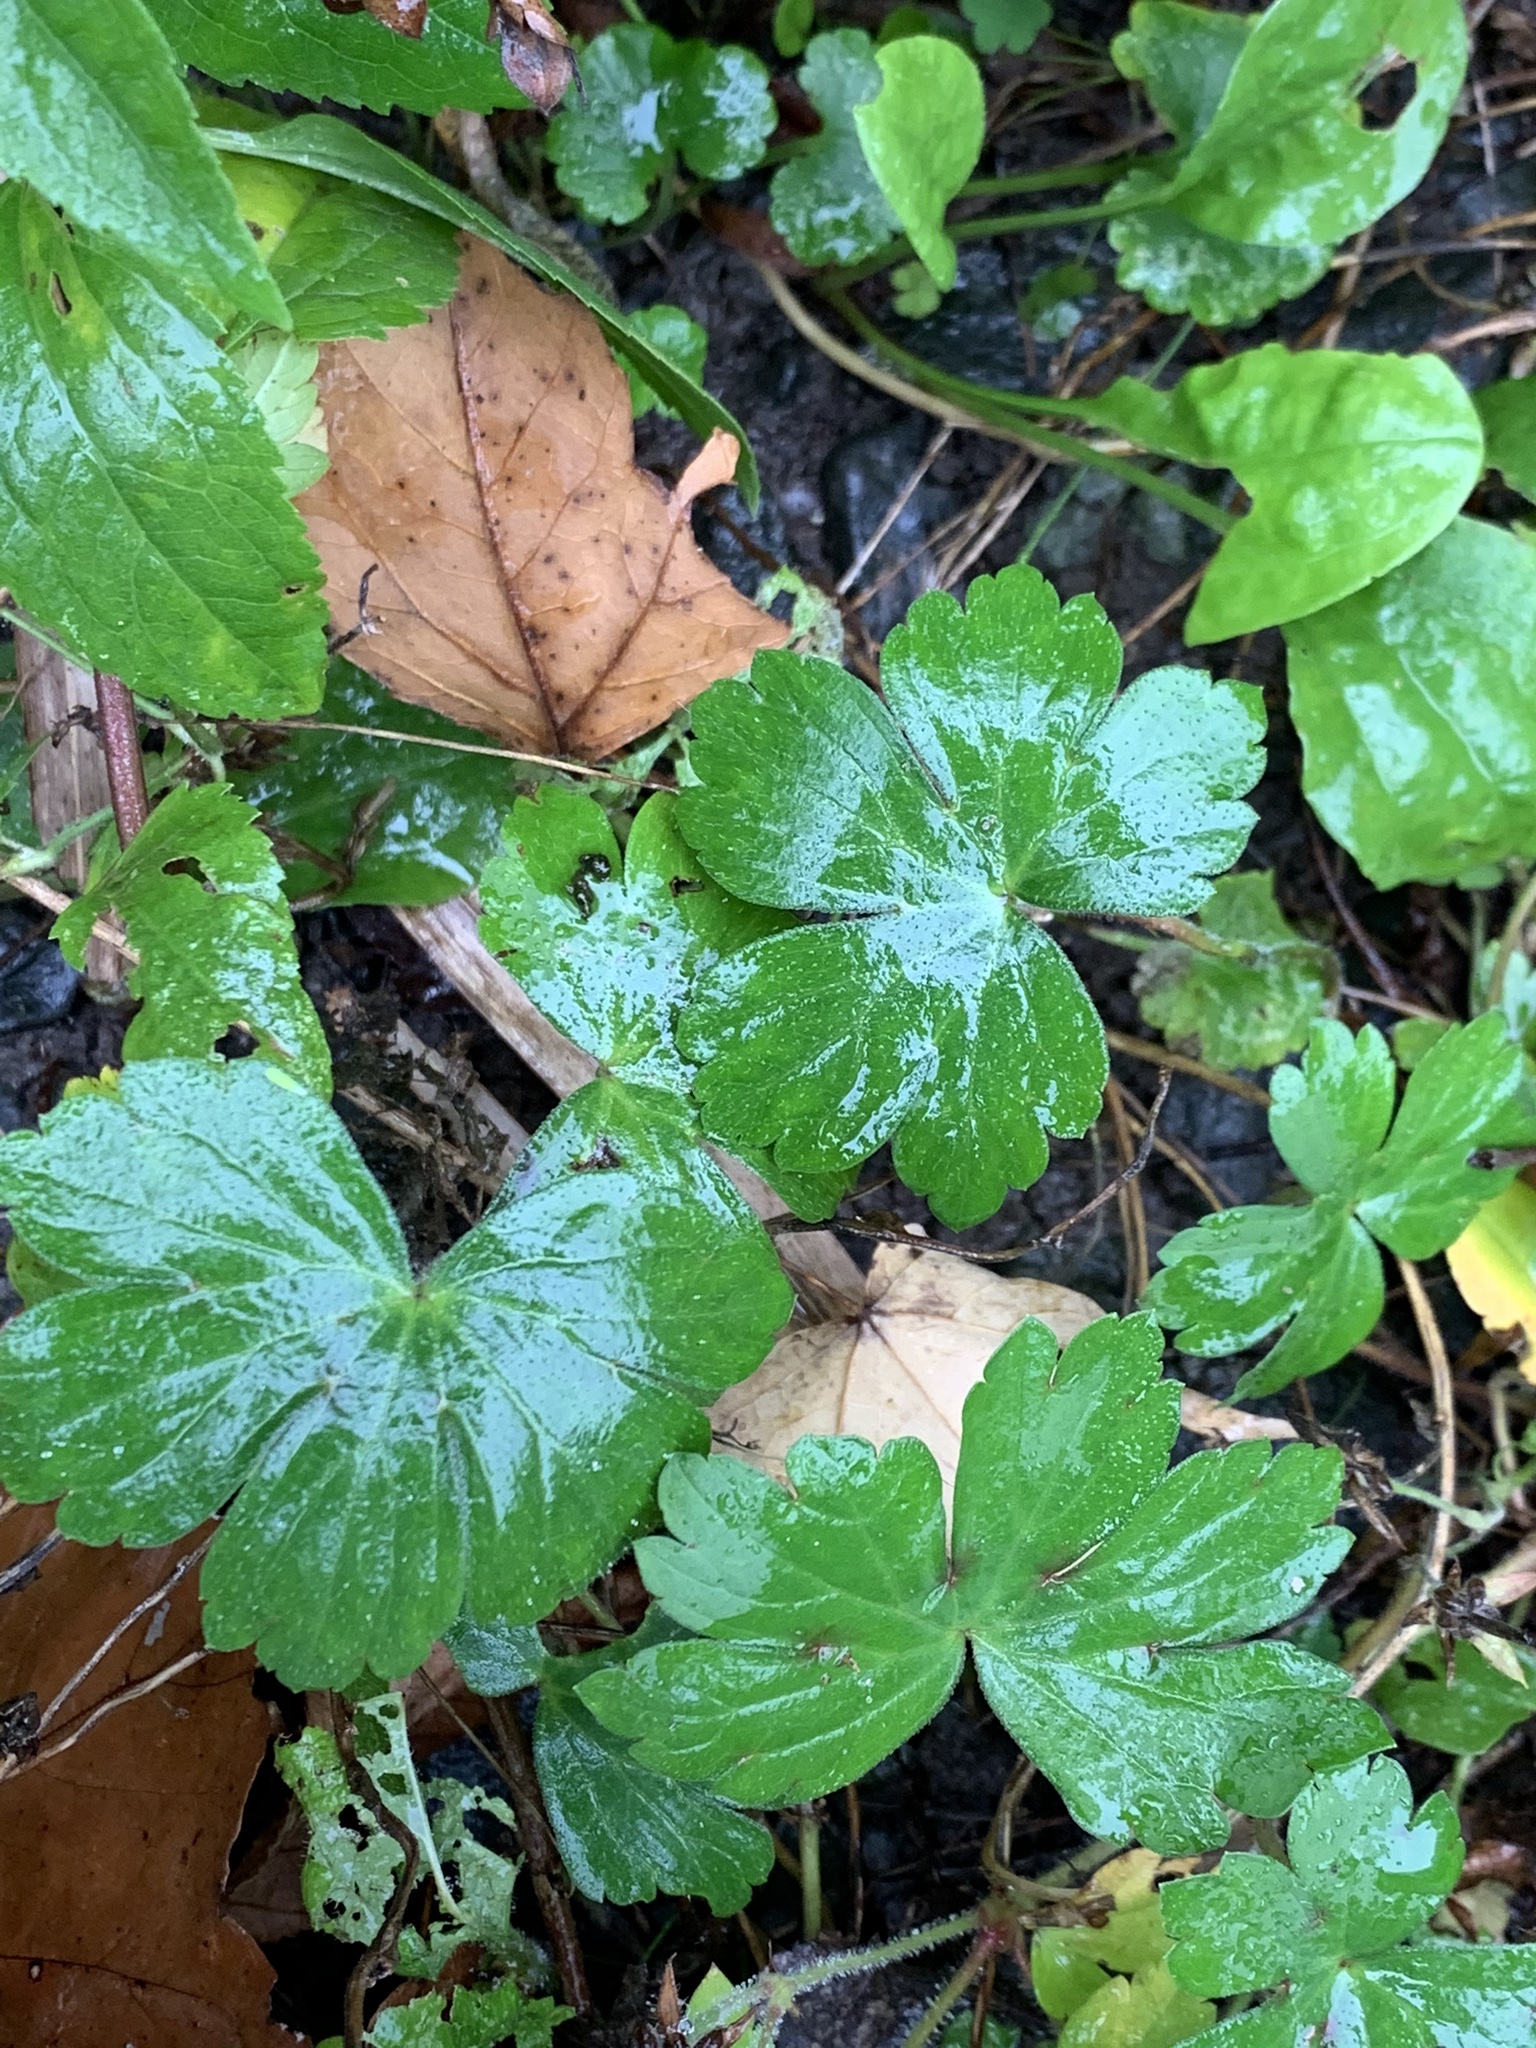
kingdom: Plantae
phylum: Tracheophyta
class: Magnoliopsida
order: Geraniales
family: Geraniaceae
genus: Geranium
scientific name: Geranium thunbergii
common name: Dewdrop crane's-bill
